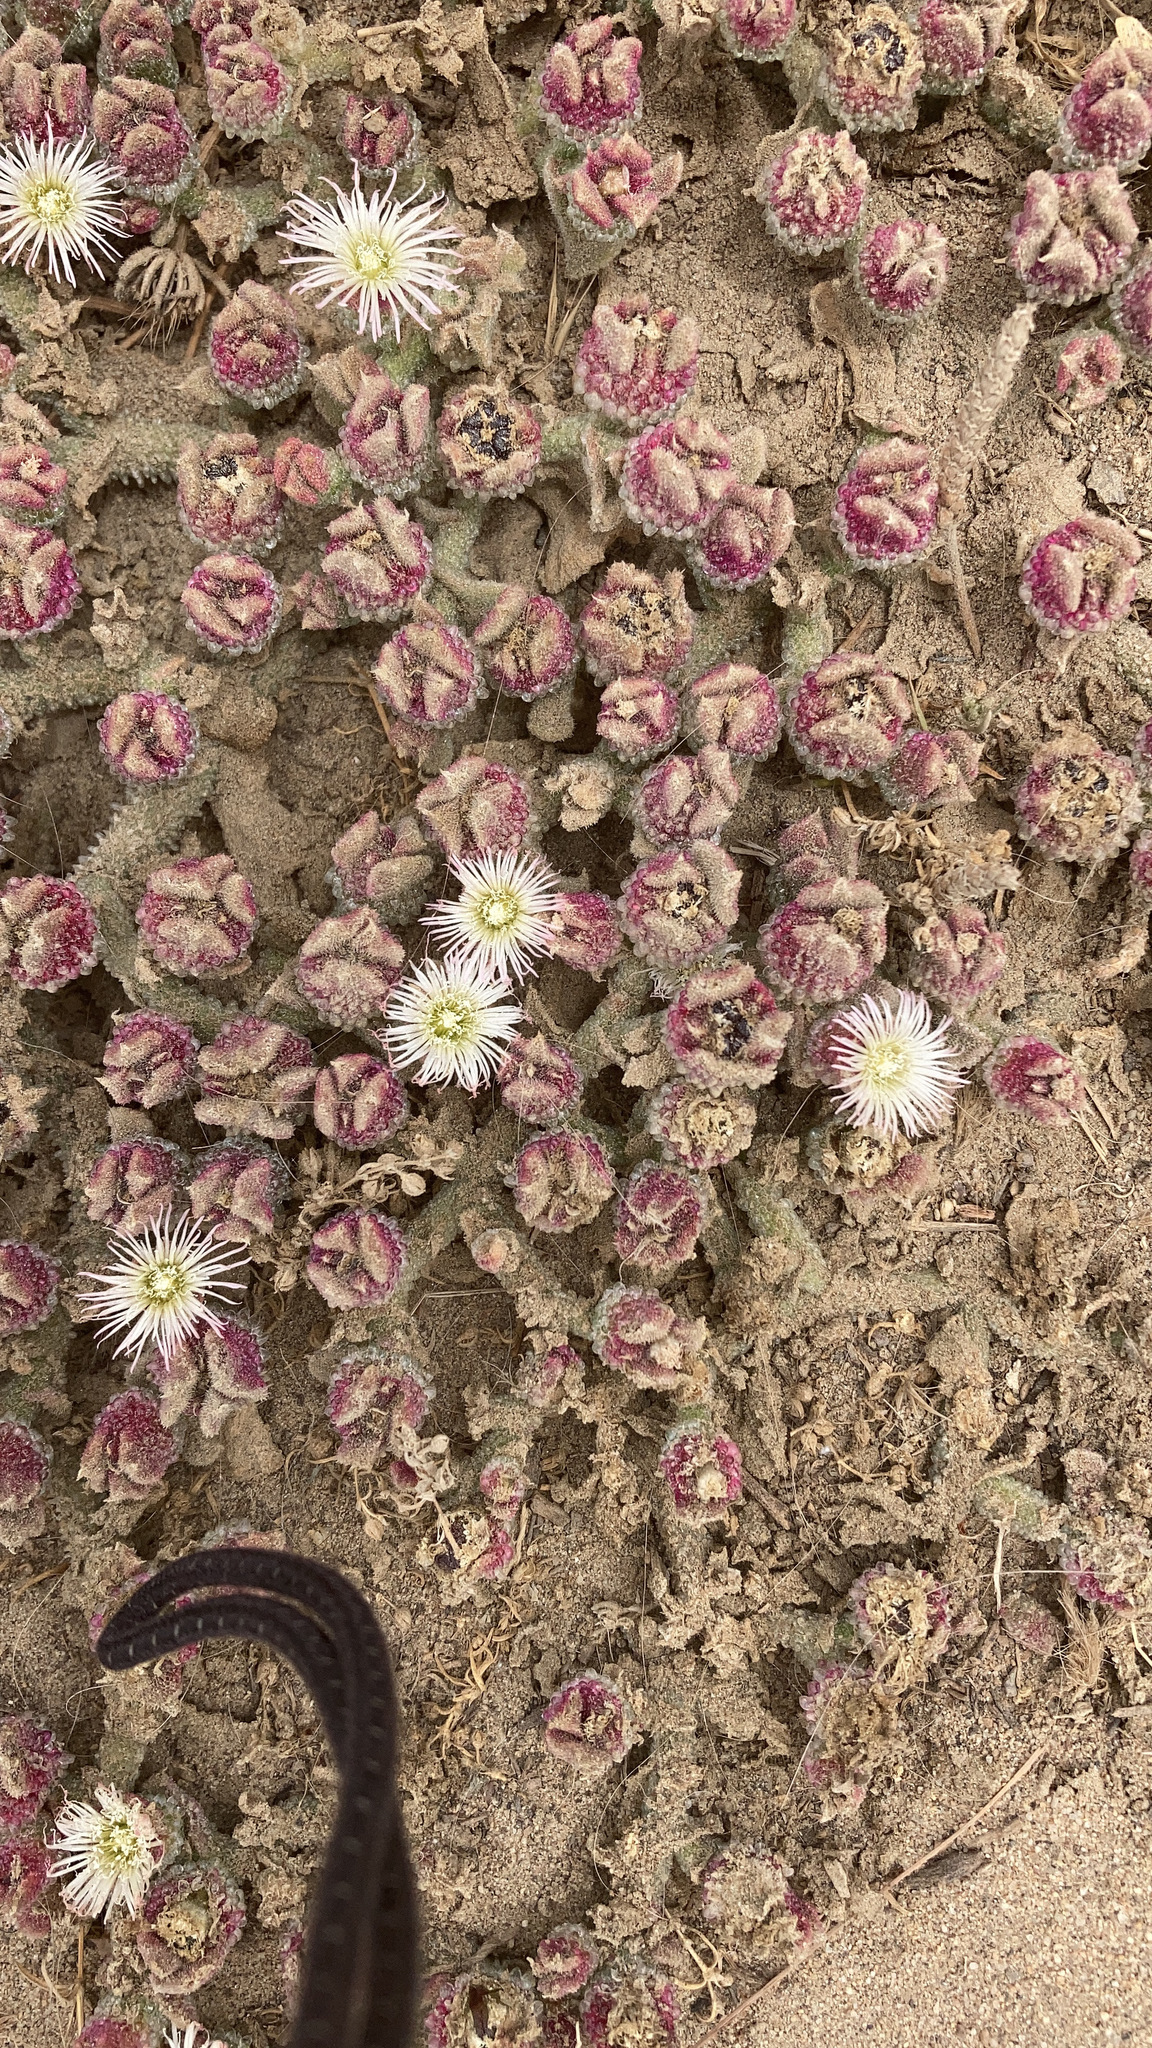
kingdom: Plantae
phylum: Tracheophyta
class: Magnoliopsida
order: Caryophyllales
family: Aizoaceae
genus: Mesembryanthemum
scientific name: Mesembryanthemum crystallinum
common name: Common iceplant
